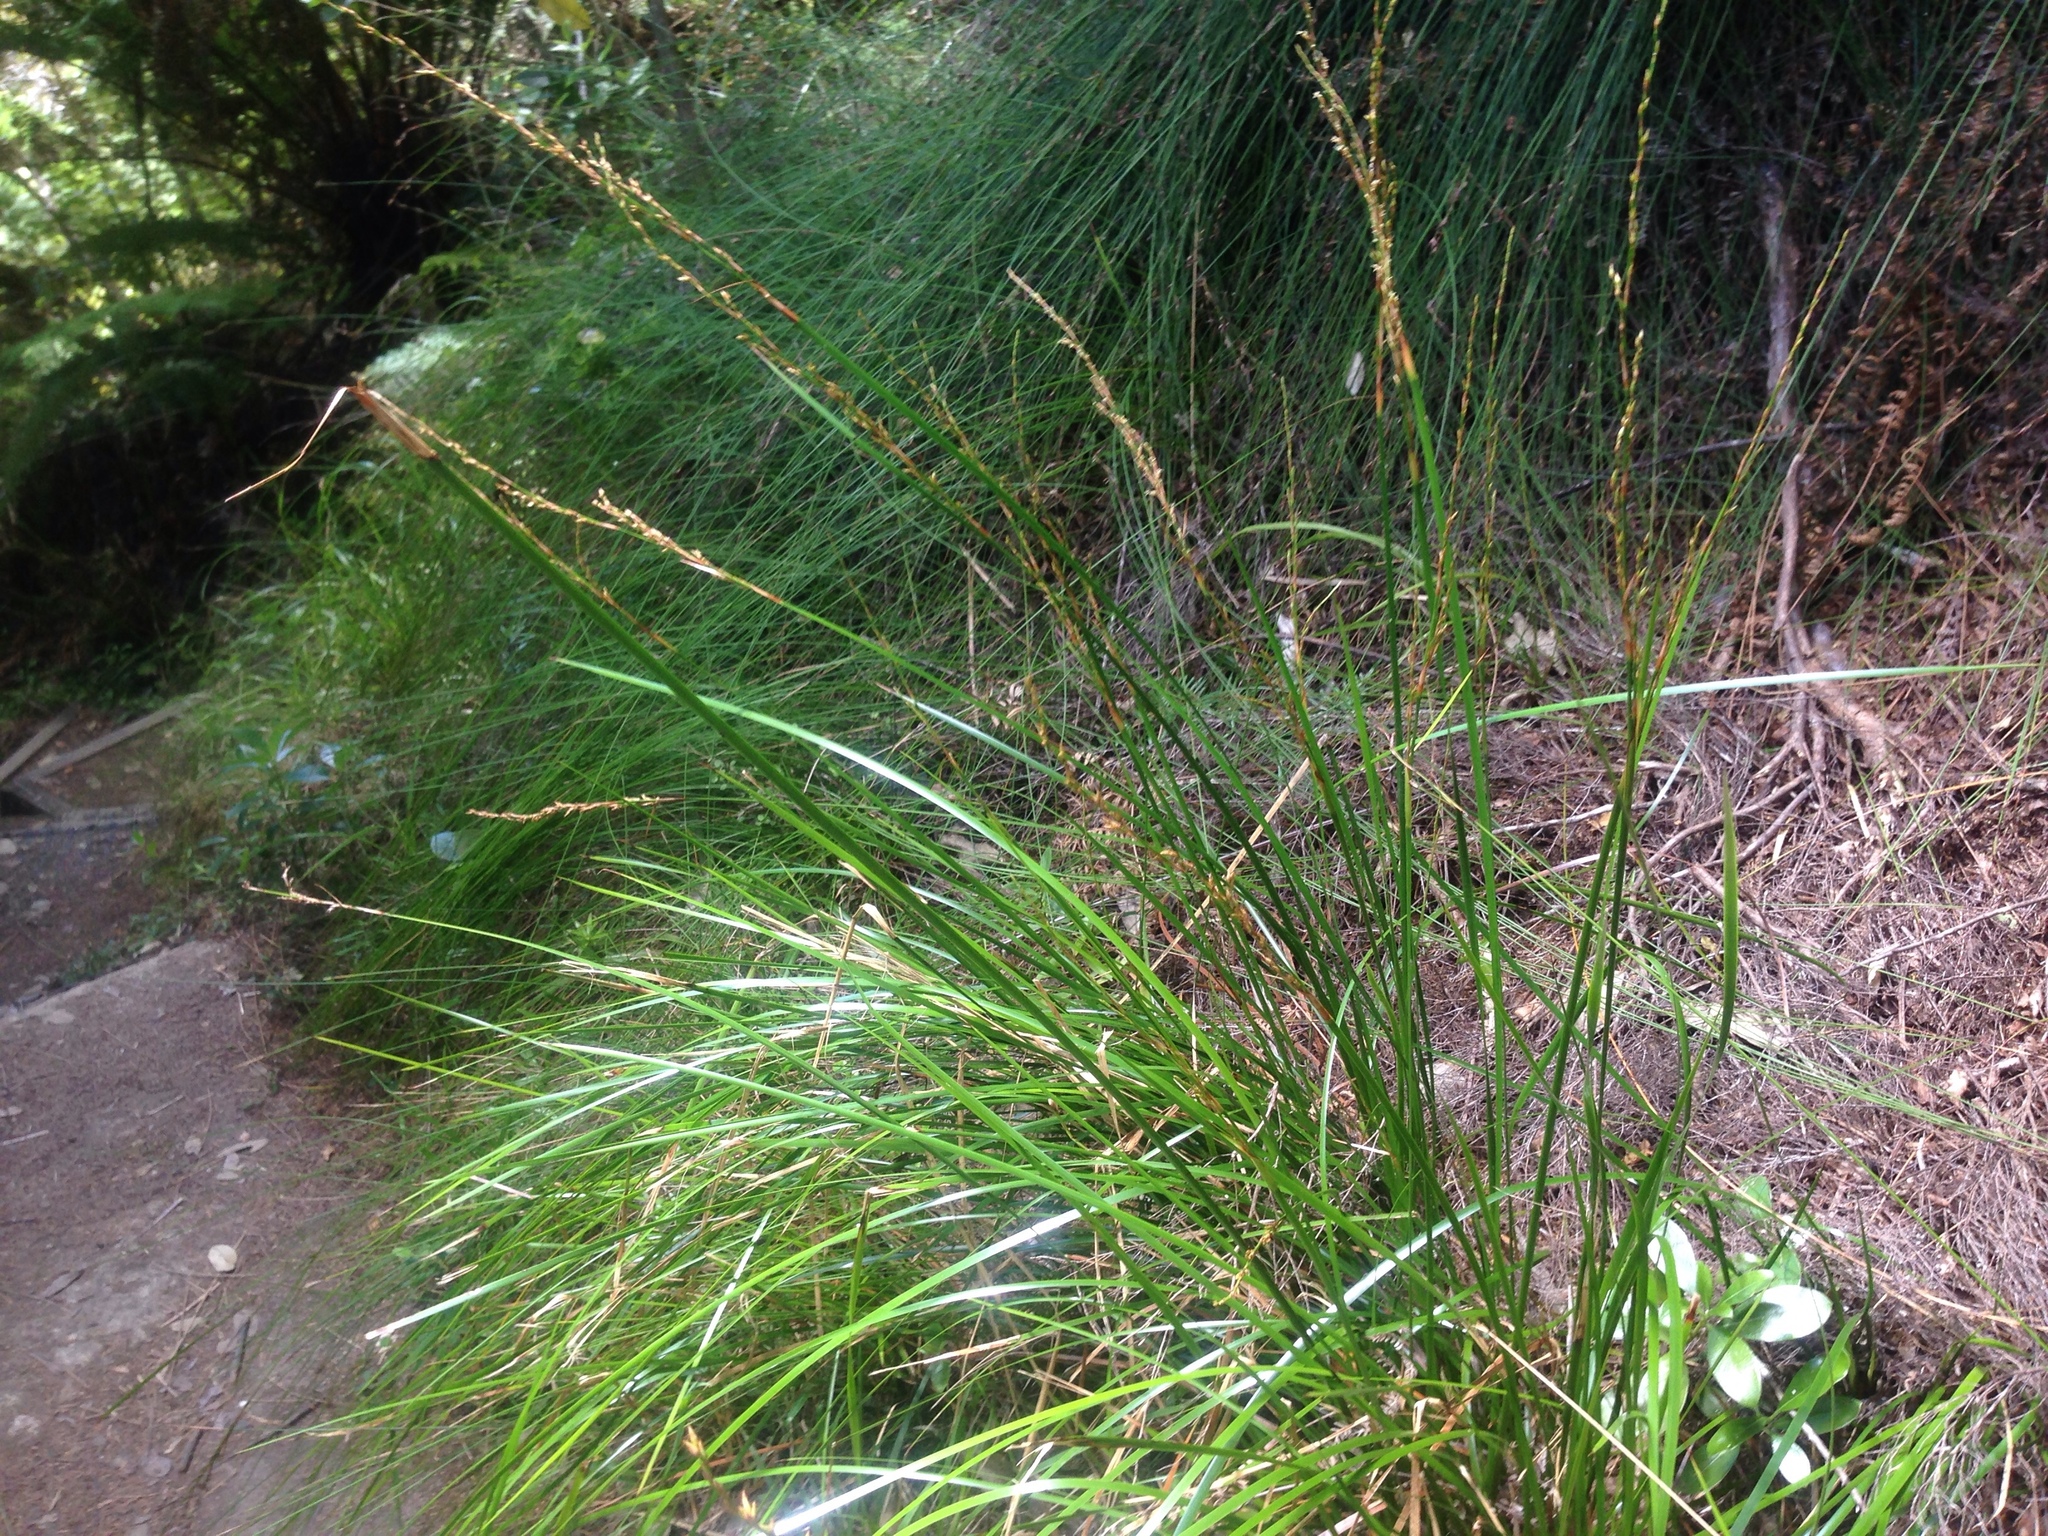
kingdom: Plantae
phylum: Tracheophyta
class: Liliopsida
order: Poales
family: Cyperaceae
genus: Lepidosperma
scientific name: Lepidosperma laterale
